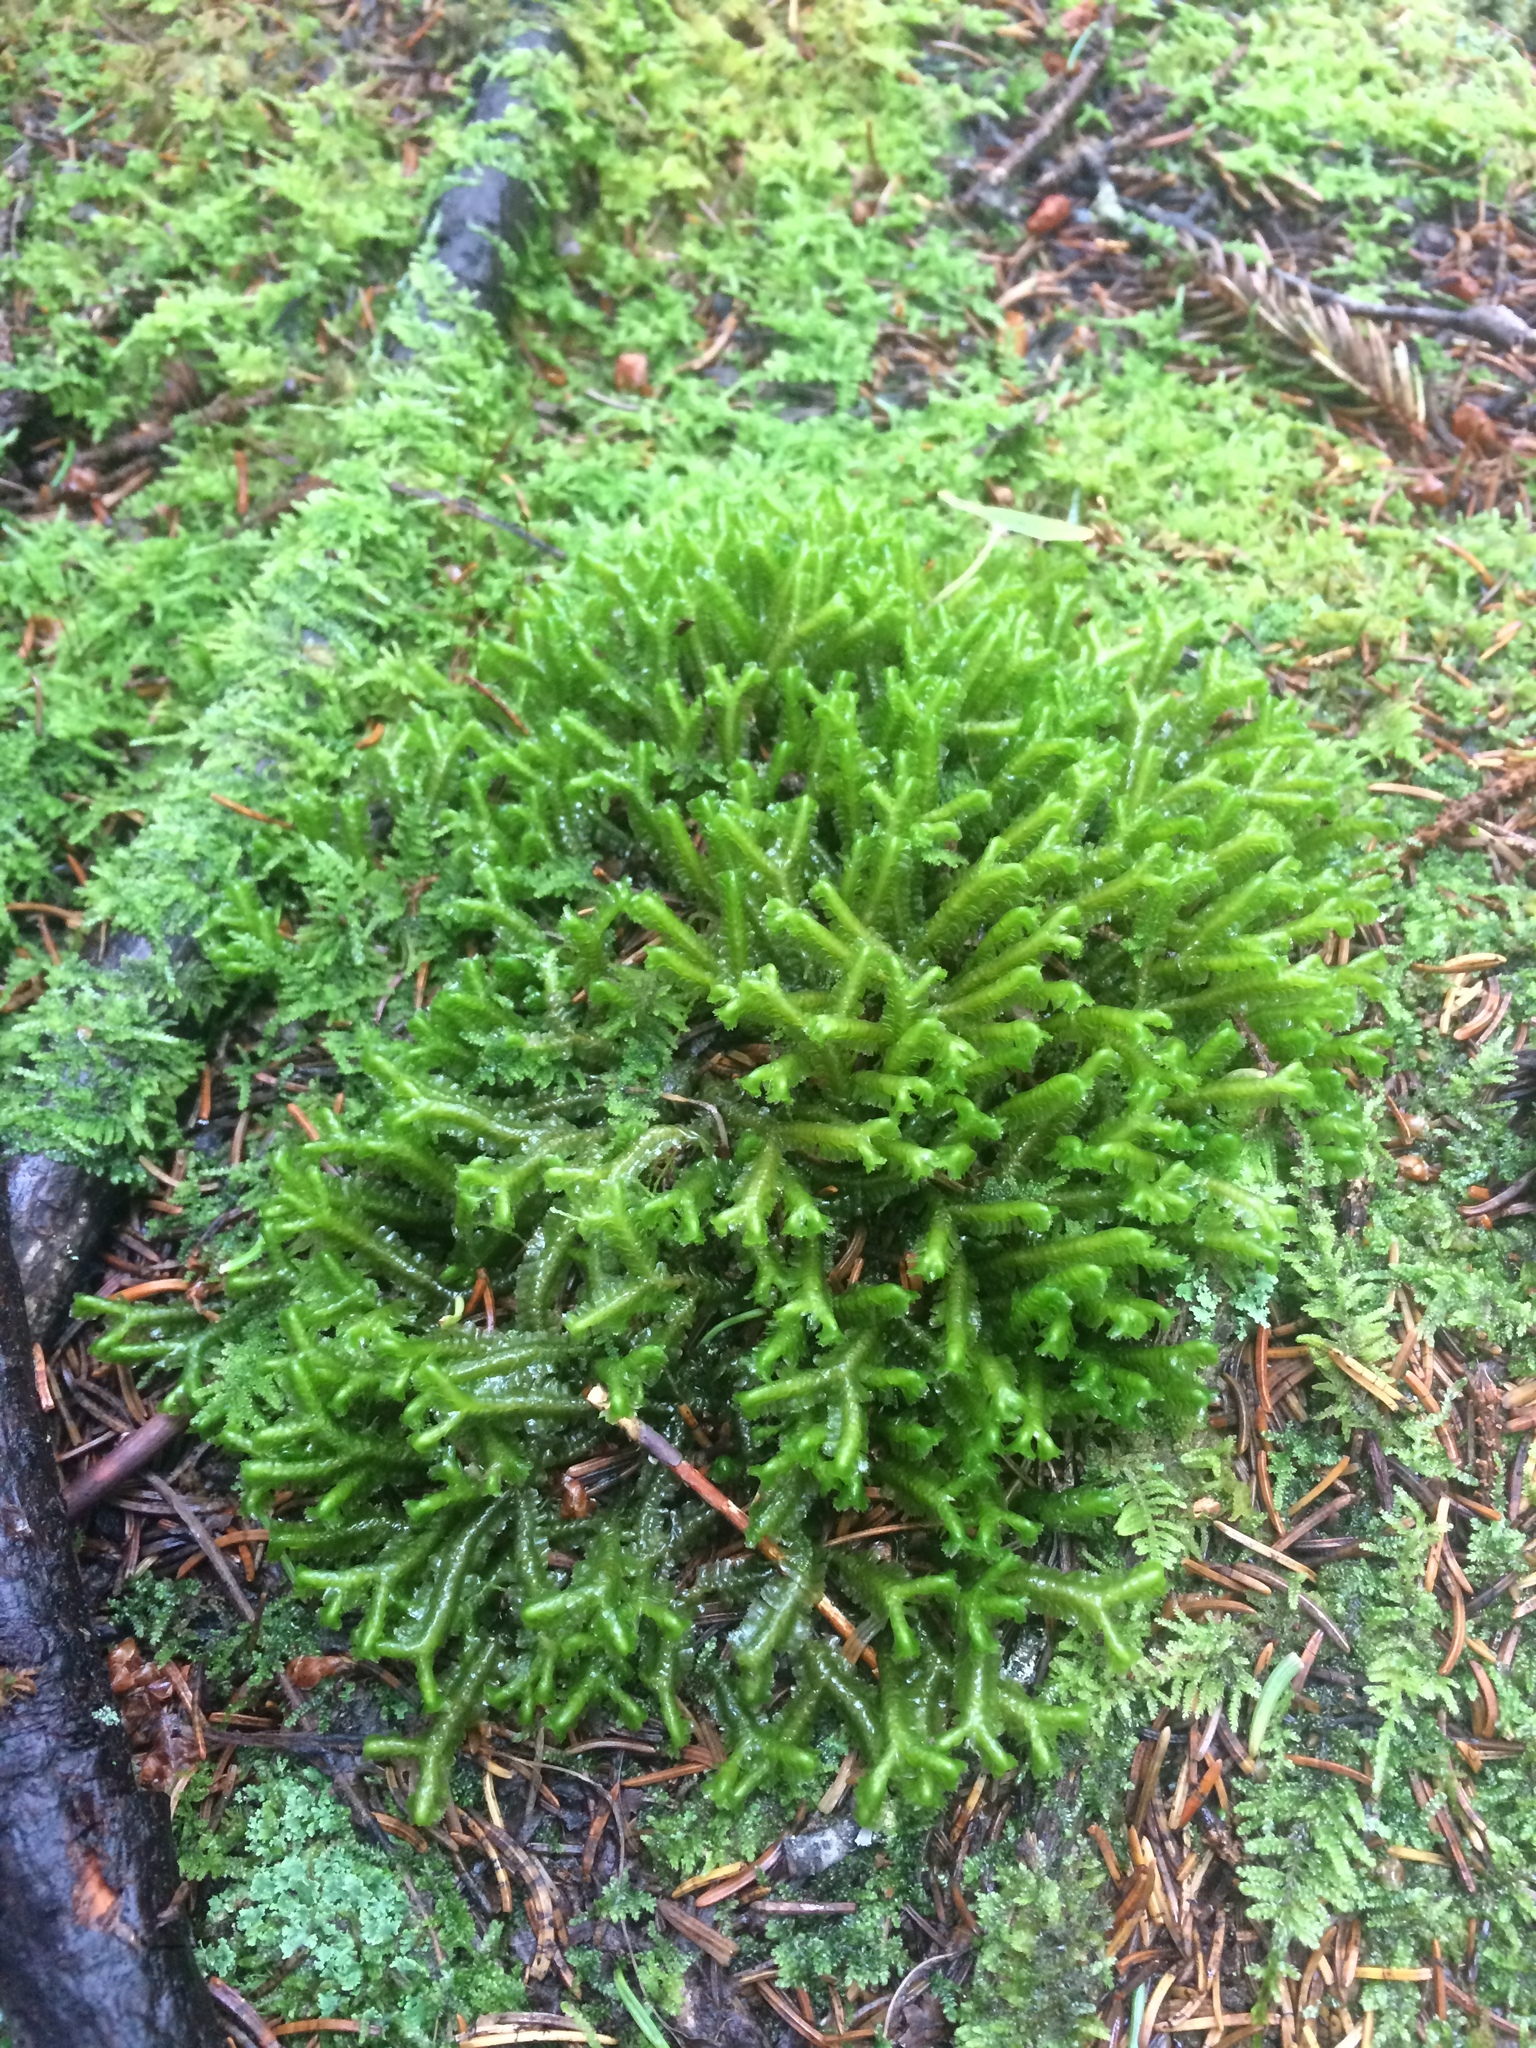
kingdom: Plantae
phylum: Marchantiophyta
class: Jungermanniopsida
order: Jungermanniales
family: Lepidoziaceae
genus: Bazzania
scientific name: Bazzania trilobata
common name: Three-lobed whipwort
